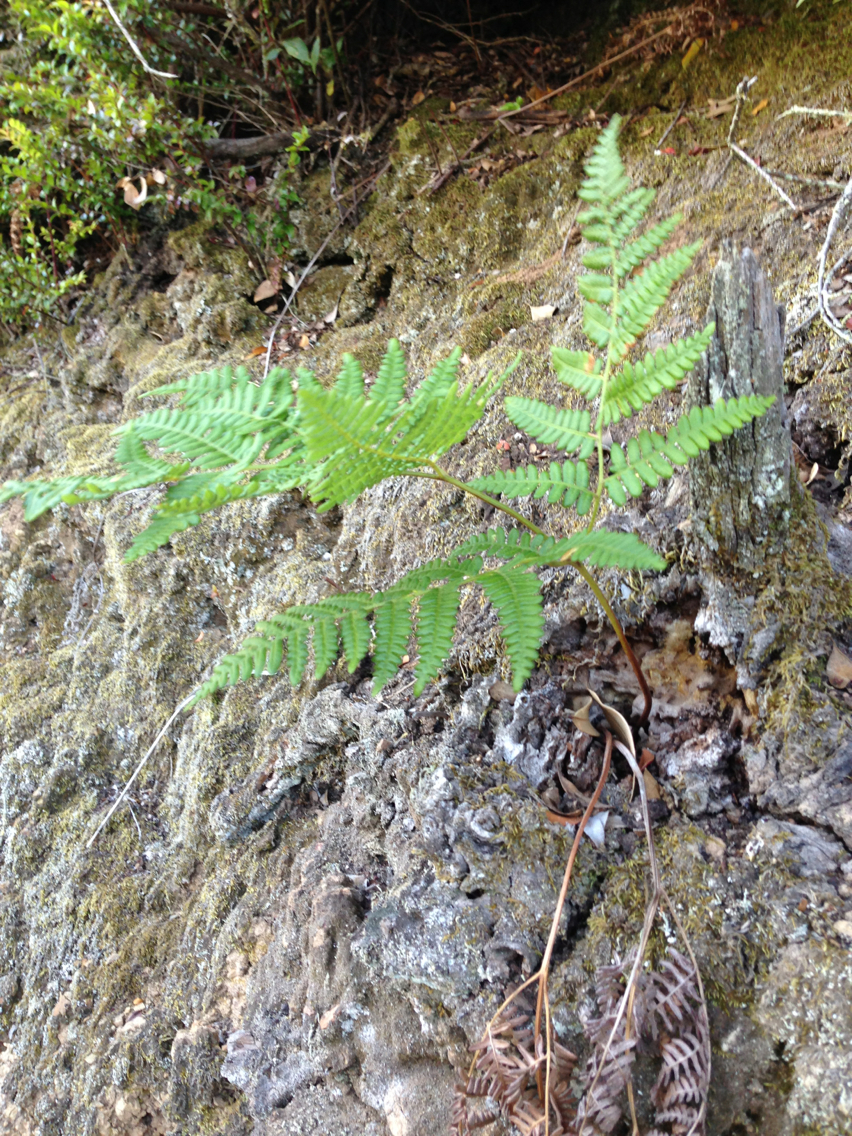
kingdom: Plantae
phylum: Tracheophyta
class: Polypodiopsida
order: Polypodiales
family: Dennstaedtiaceae
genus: Pteridium
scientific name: Pteridium aquilinum
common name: Bracken
